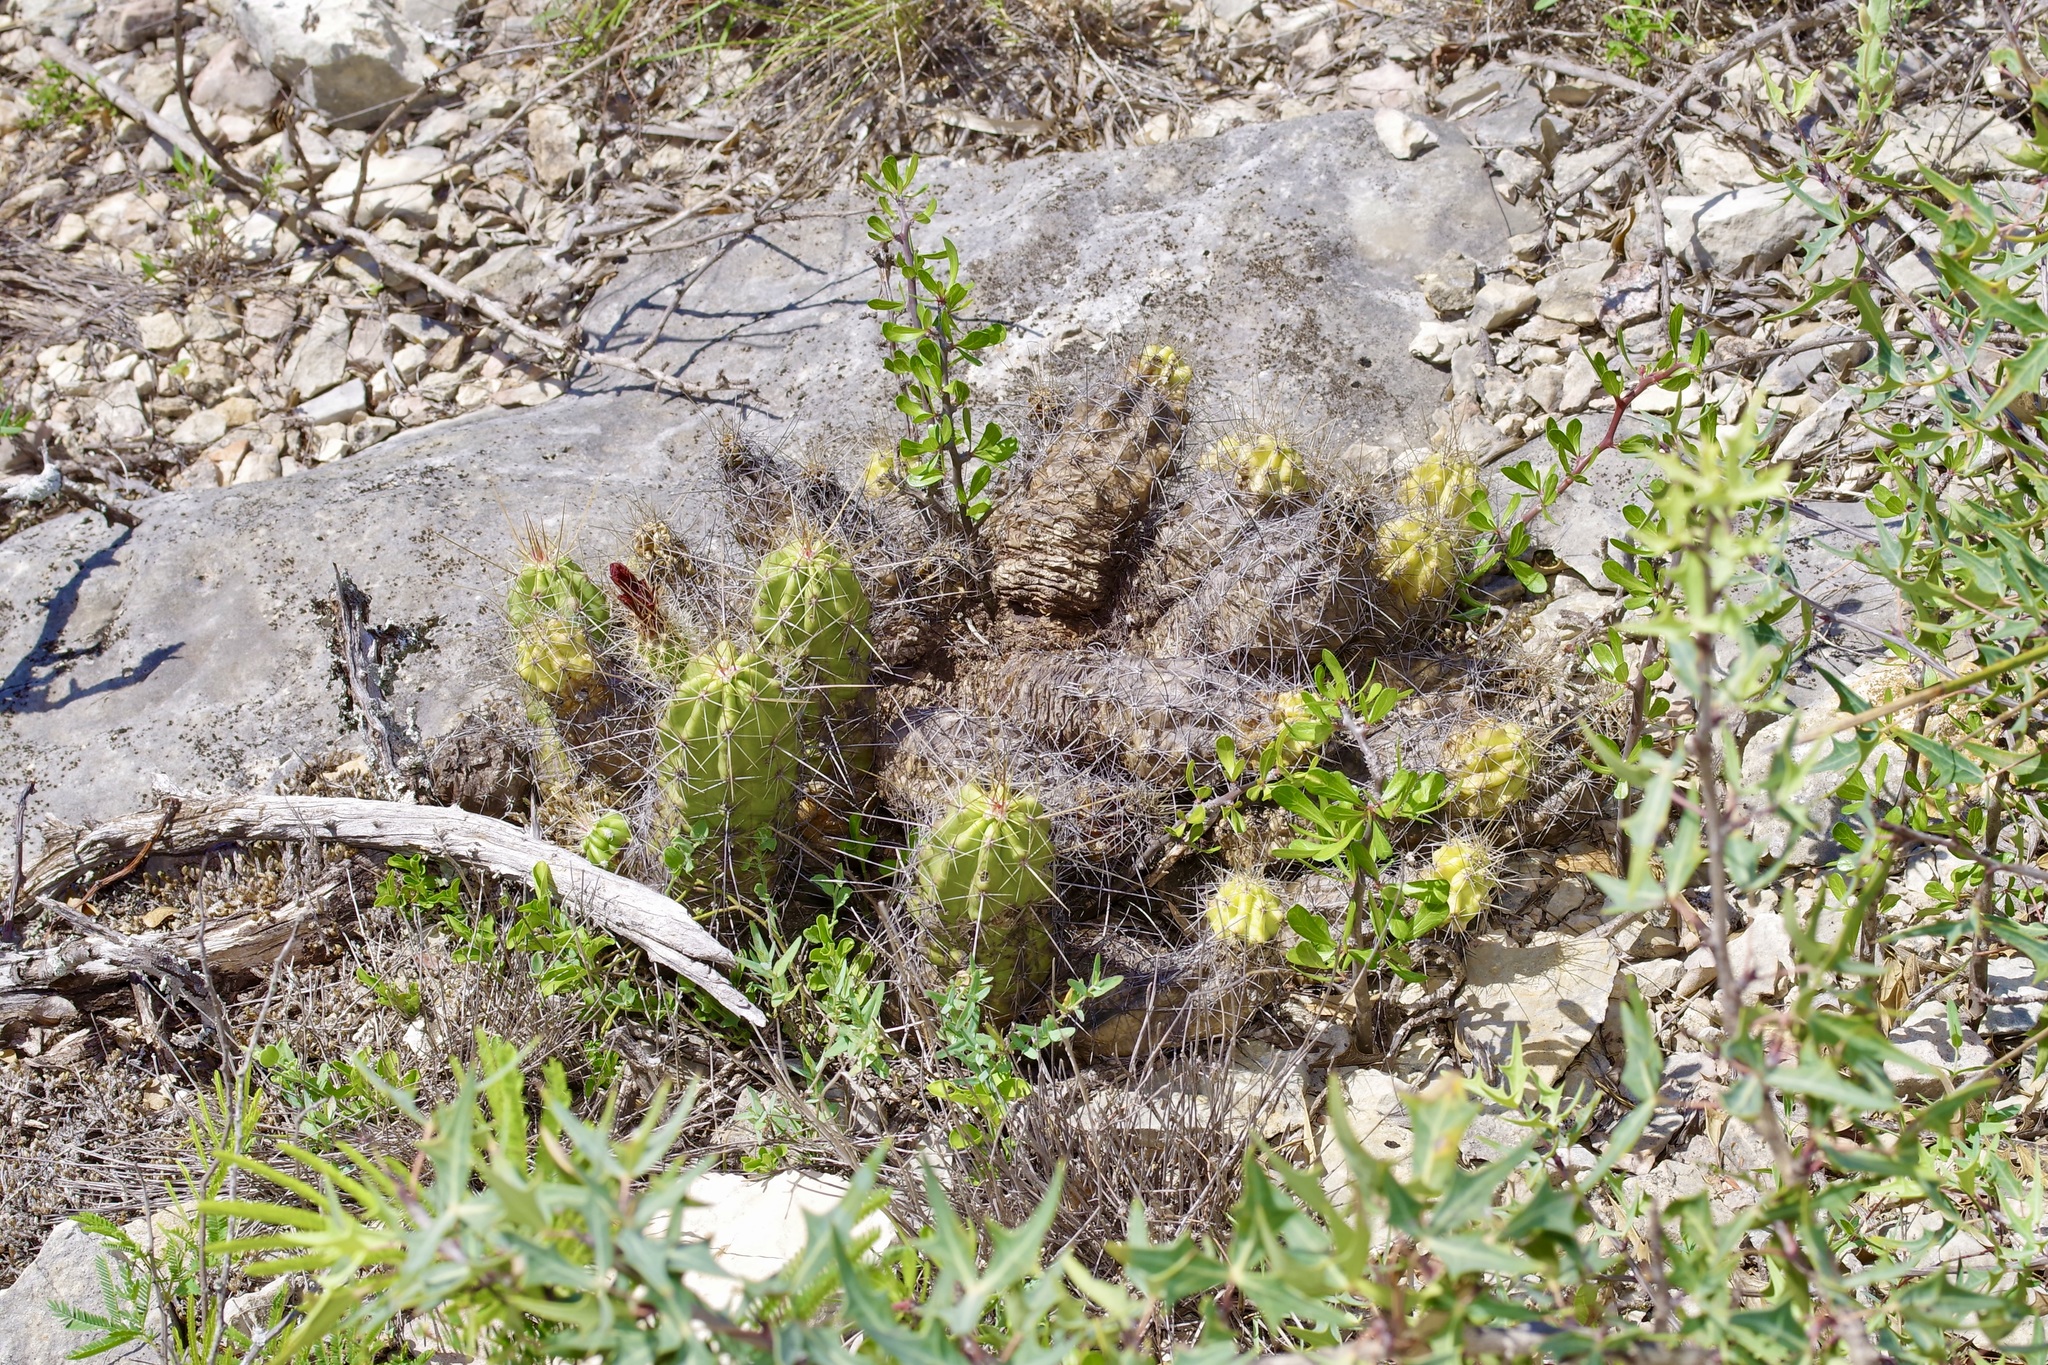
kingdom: Plantae
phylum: Tracheophyta
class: Magnoliopsida
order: Caryophyllales
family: Cactaceae
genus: Echinocereus
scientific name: Echinocereus enneacanthus
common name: Pitaya
